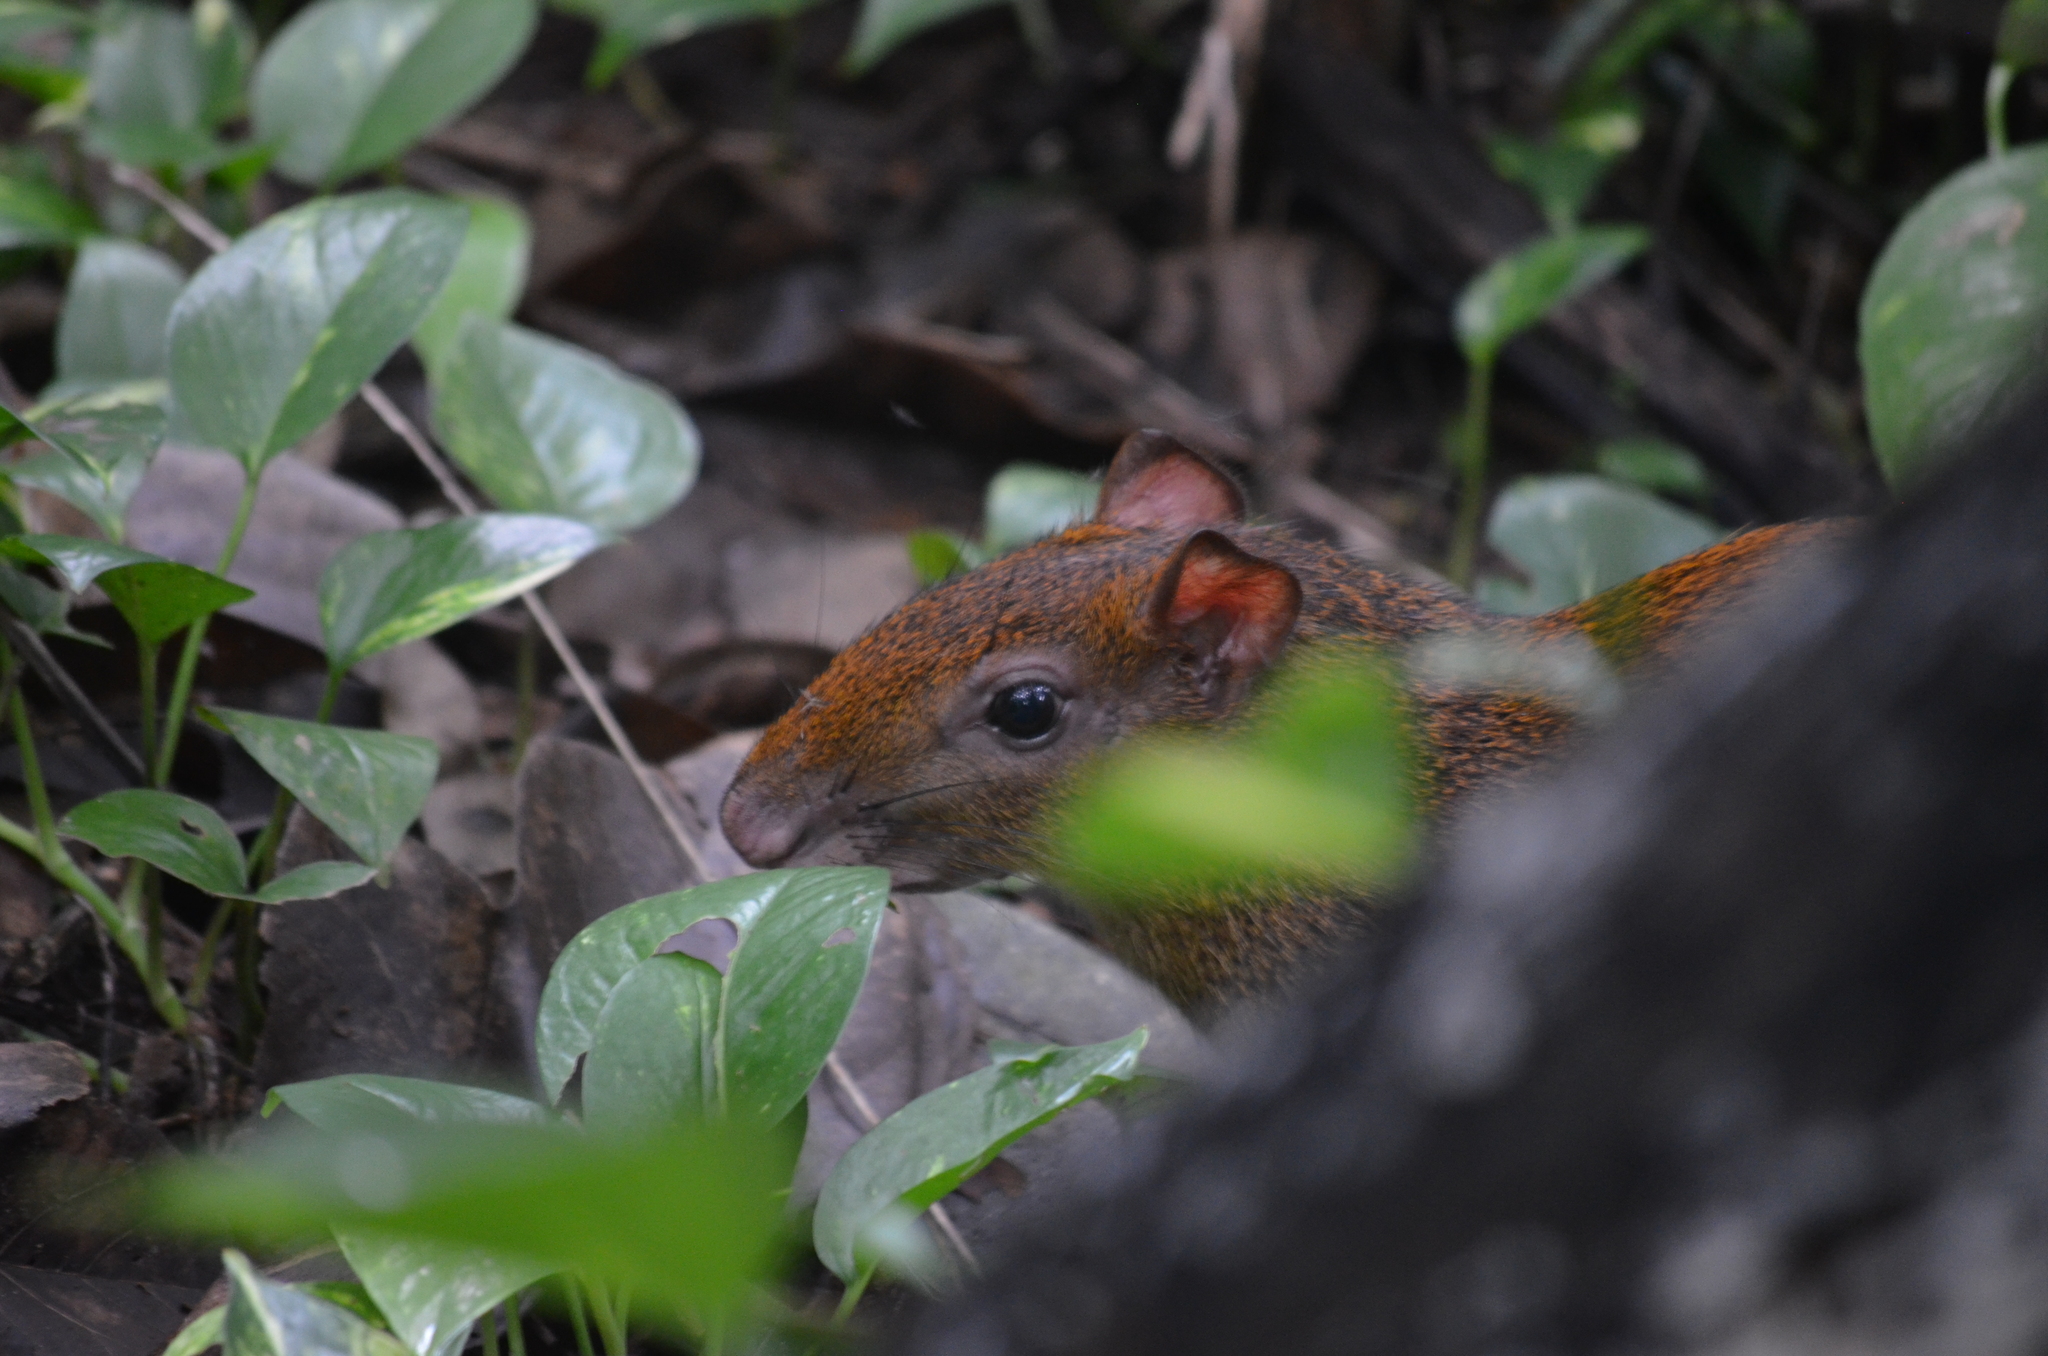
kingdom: Animalia
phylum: Chordata
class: Mammalia
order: Rodentia
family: Dasyproctidae
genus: Dasyprocta
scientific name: Dasyprocta punctata
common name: Central american agouti
